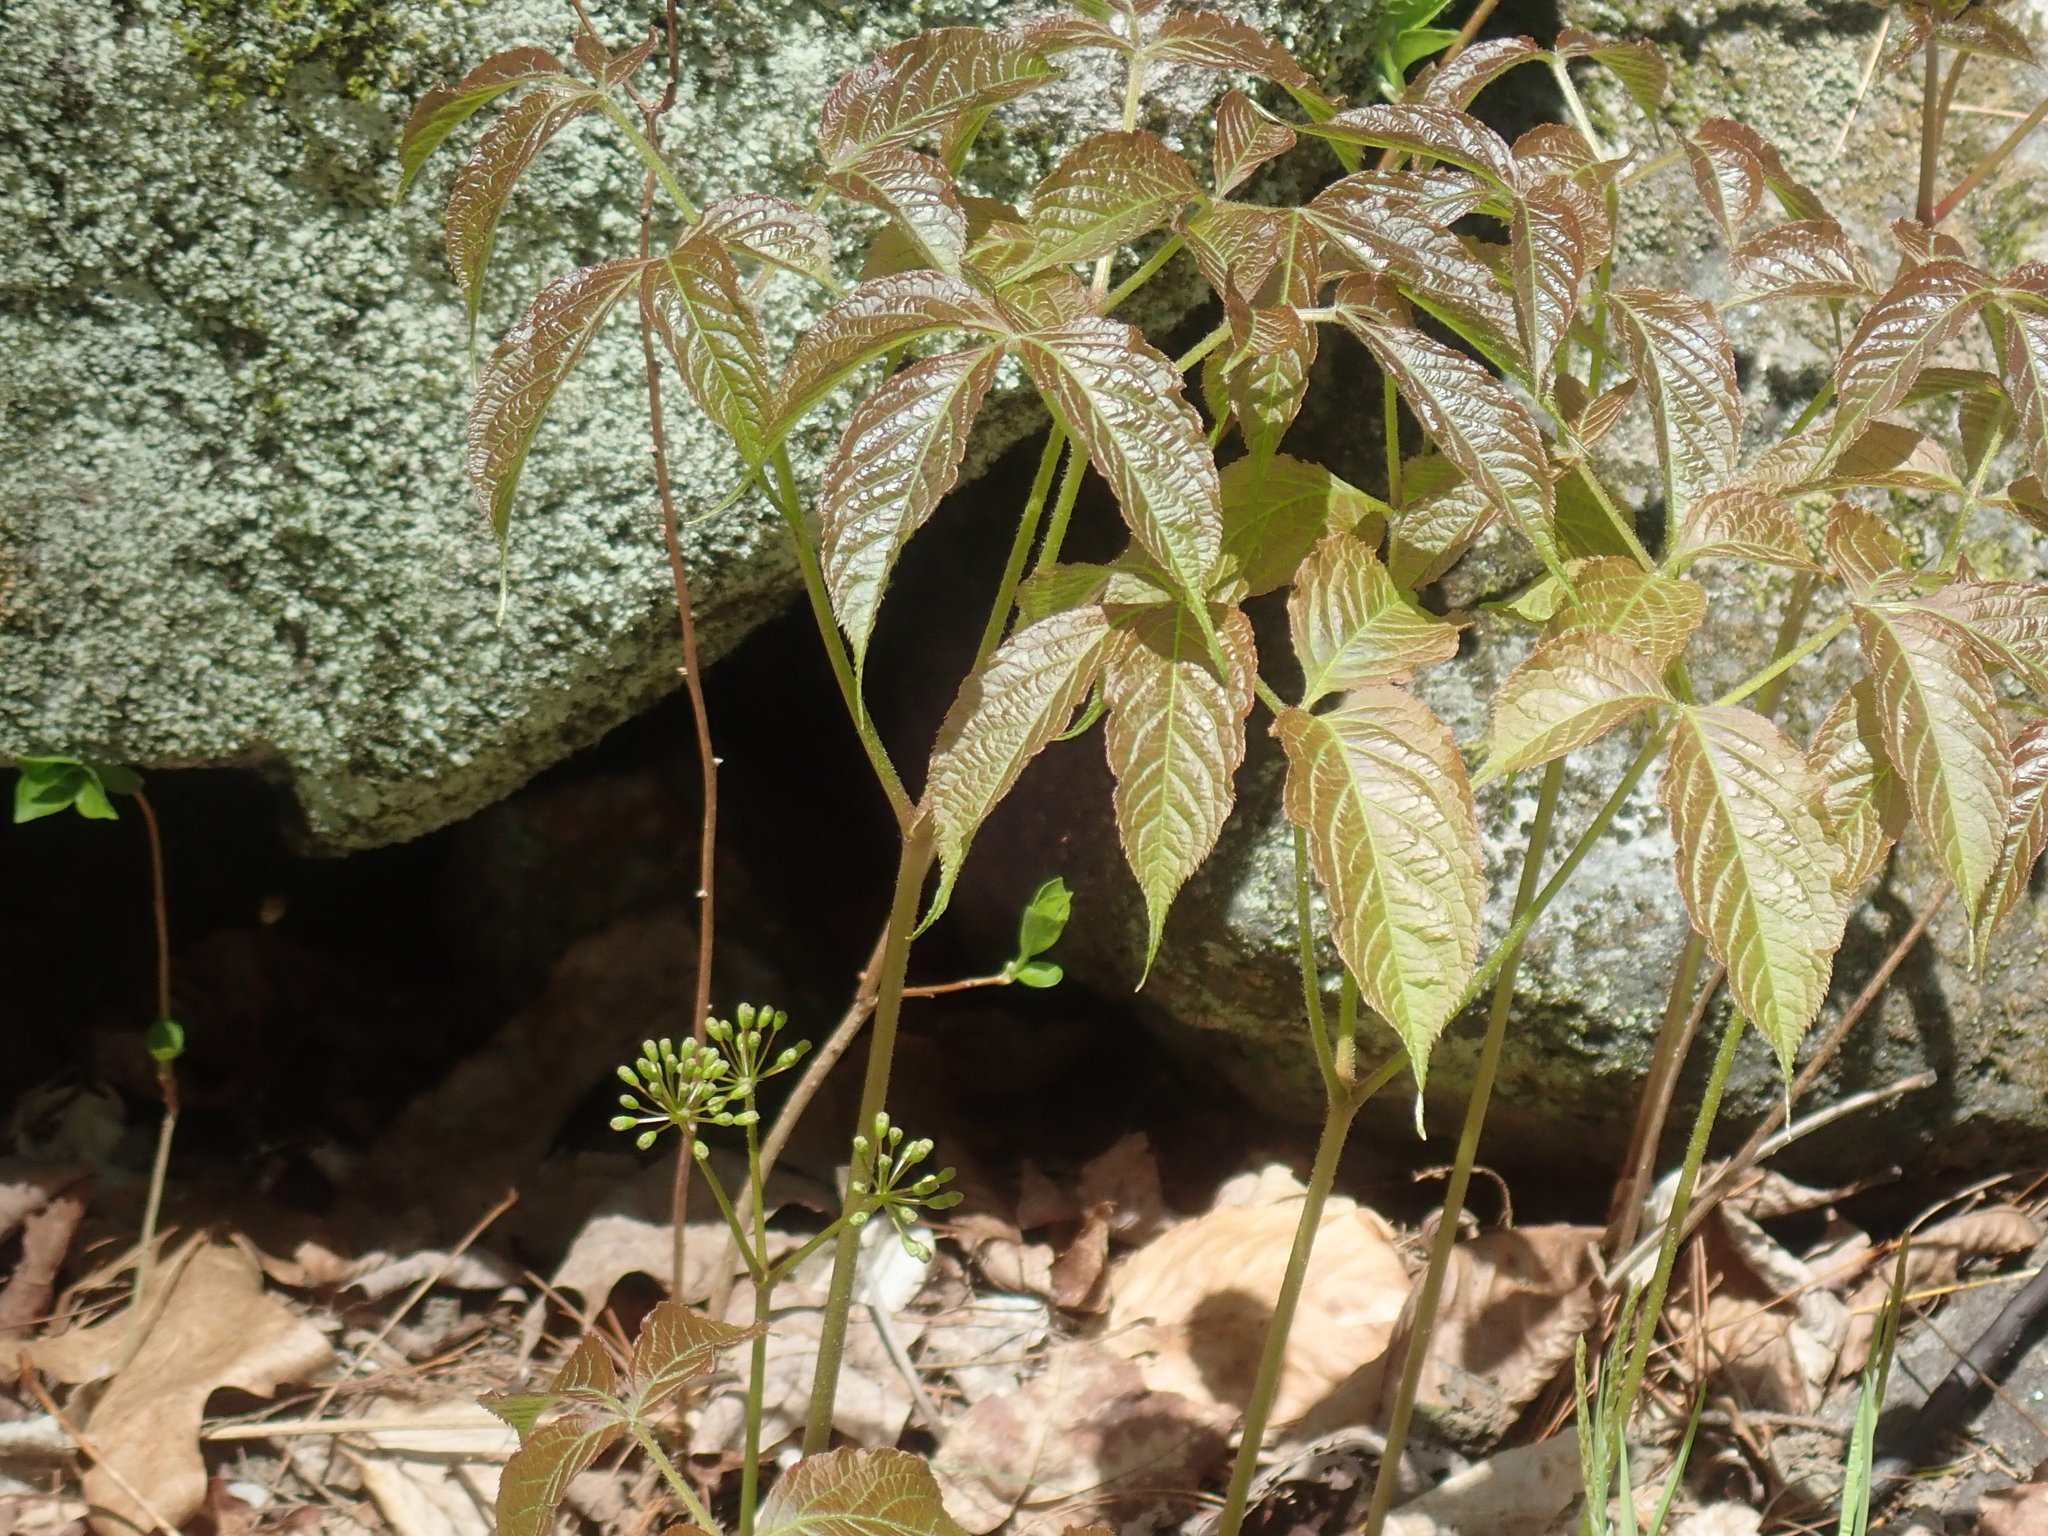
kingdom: Plantae
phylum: Tracheophyta
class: Magnoliopsida
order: Apiales
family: Araliaceae
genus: Aralia
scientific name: Aralia nudicaulis
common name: Wild sarsaparilla
